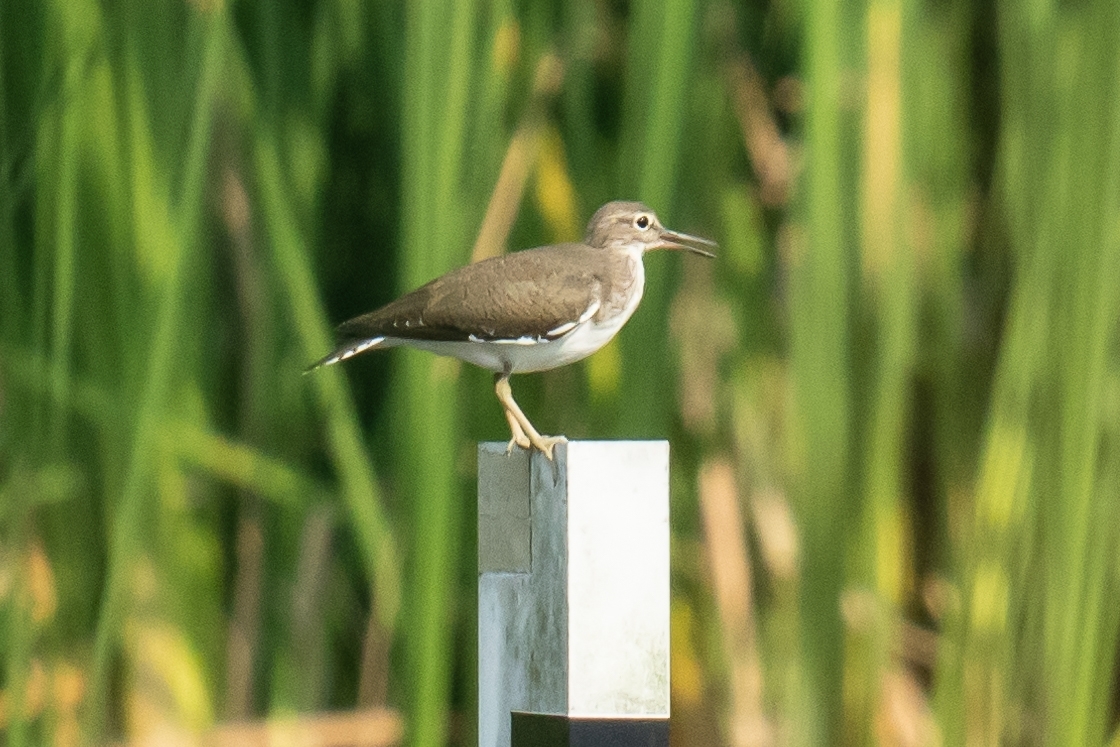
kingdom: Animalia
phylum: Chordata
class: Aves
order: Charadriiformes
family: Scolopacidae
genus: Actitis
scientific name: Actitis hypoleucos
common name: Common sandpiper
